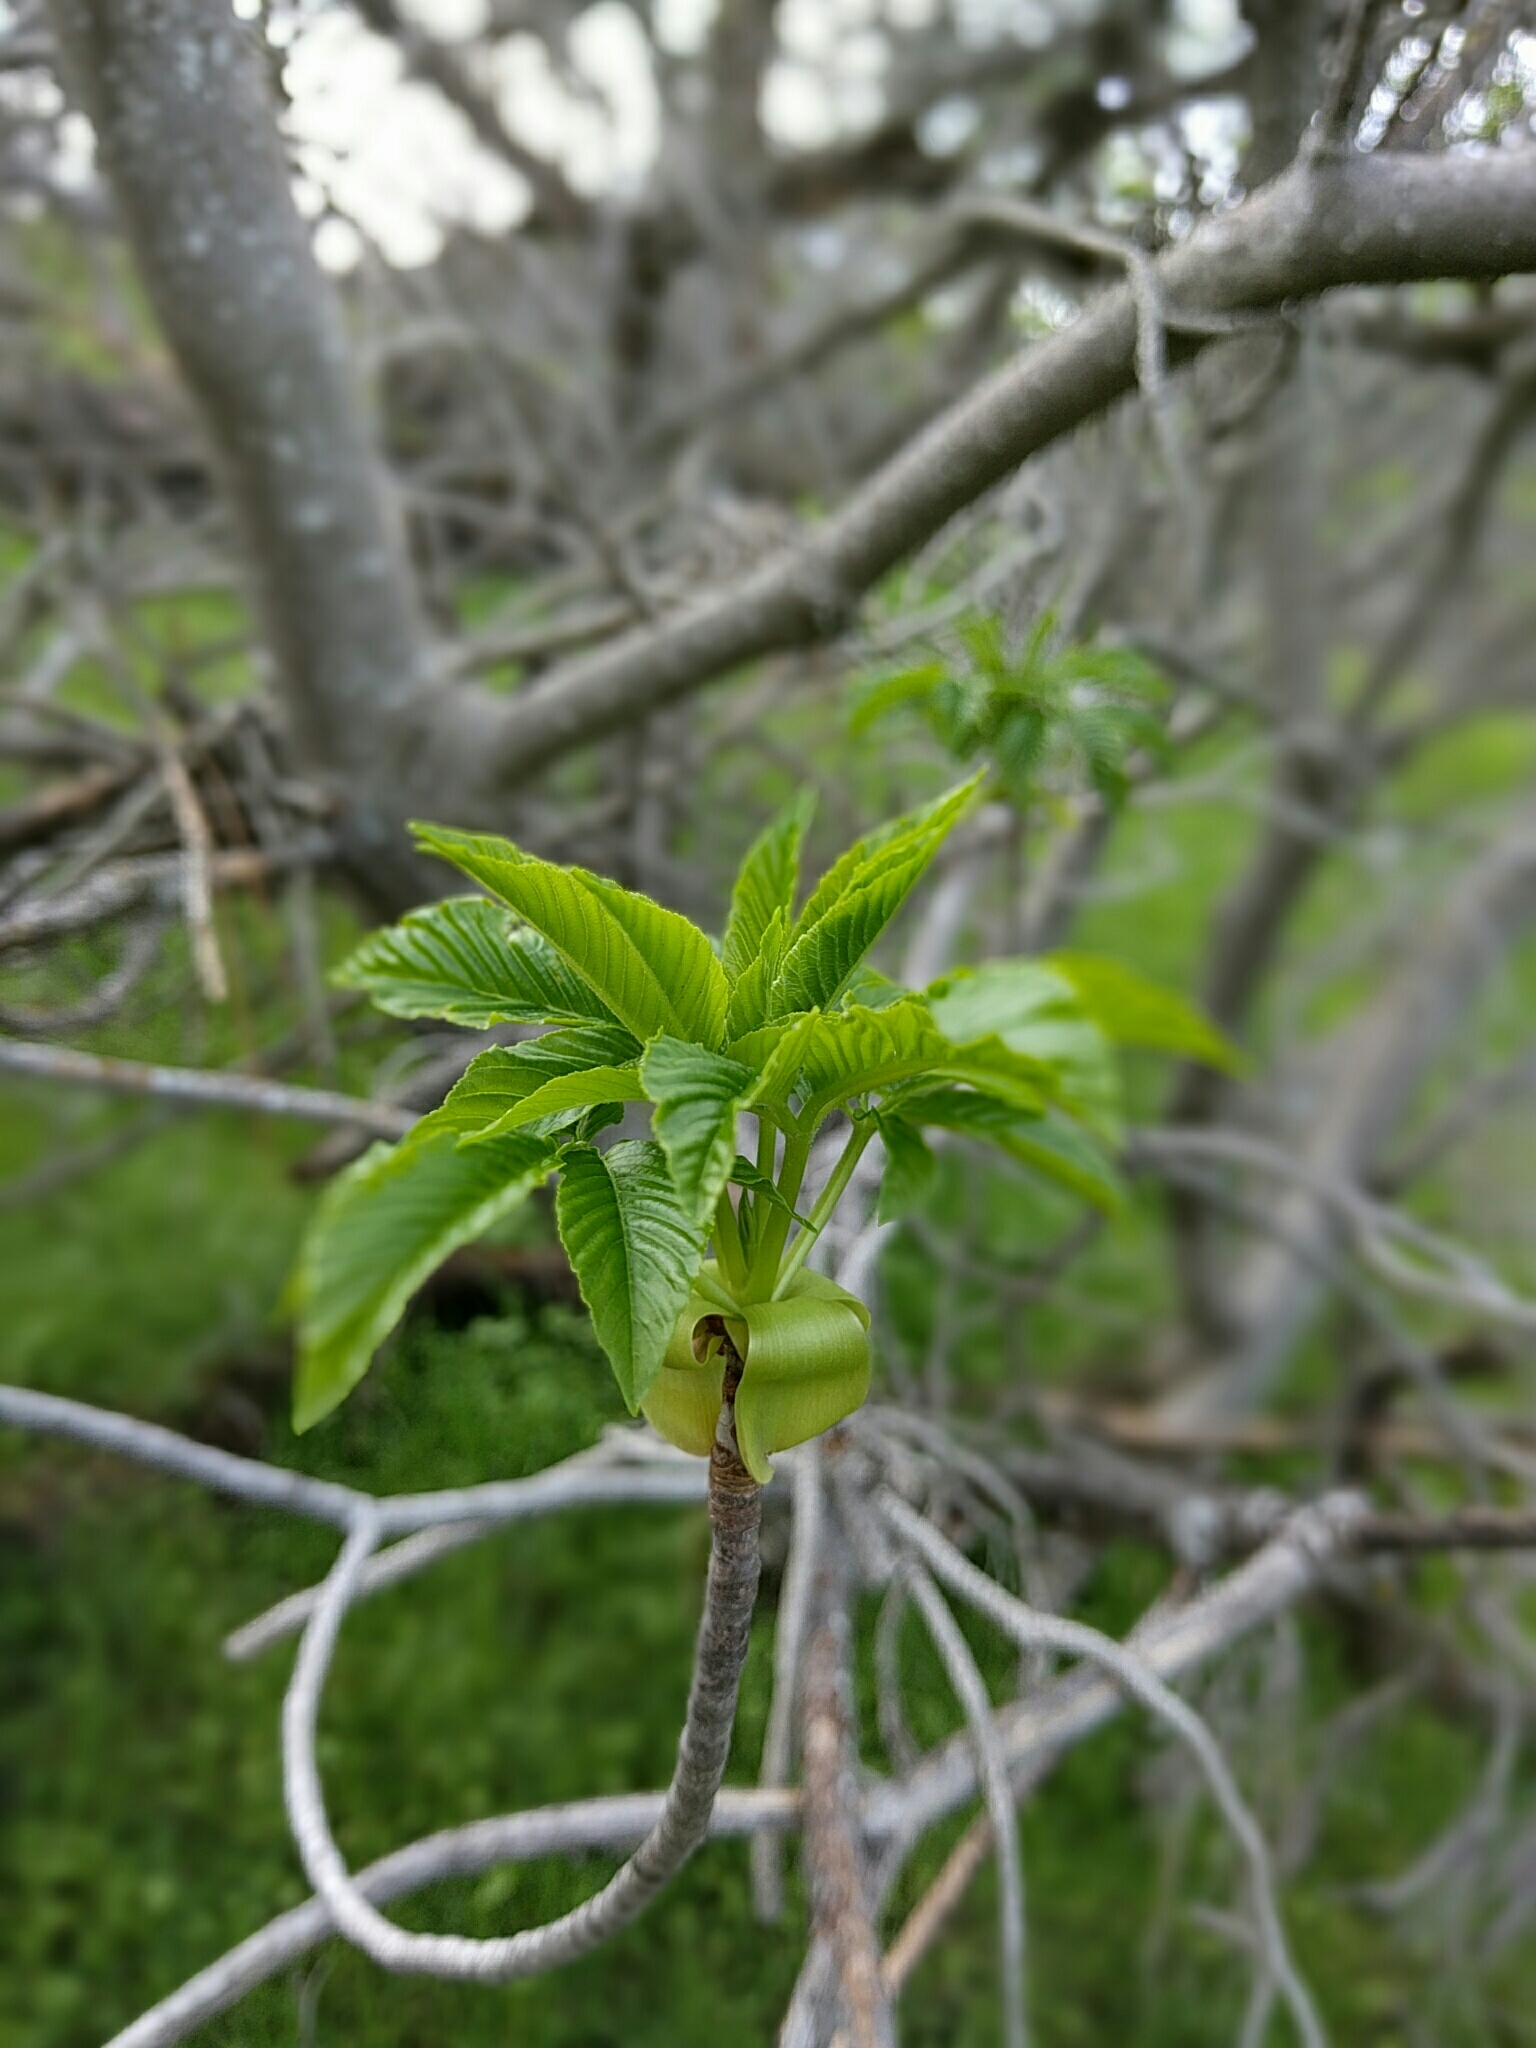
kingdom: Plantae
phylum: Tracheophyta
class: Magnoliopsida
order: Sapindales
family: Sapindaceae
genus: Aesculus
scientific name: Aesculus californica
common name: California buckeye
